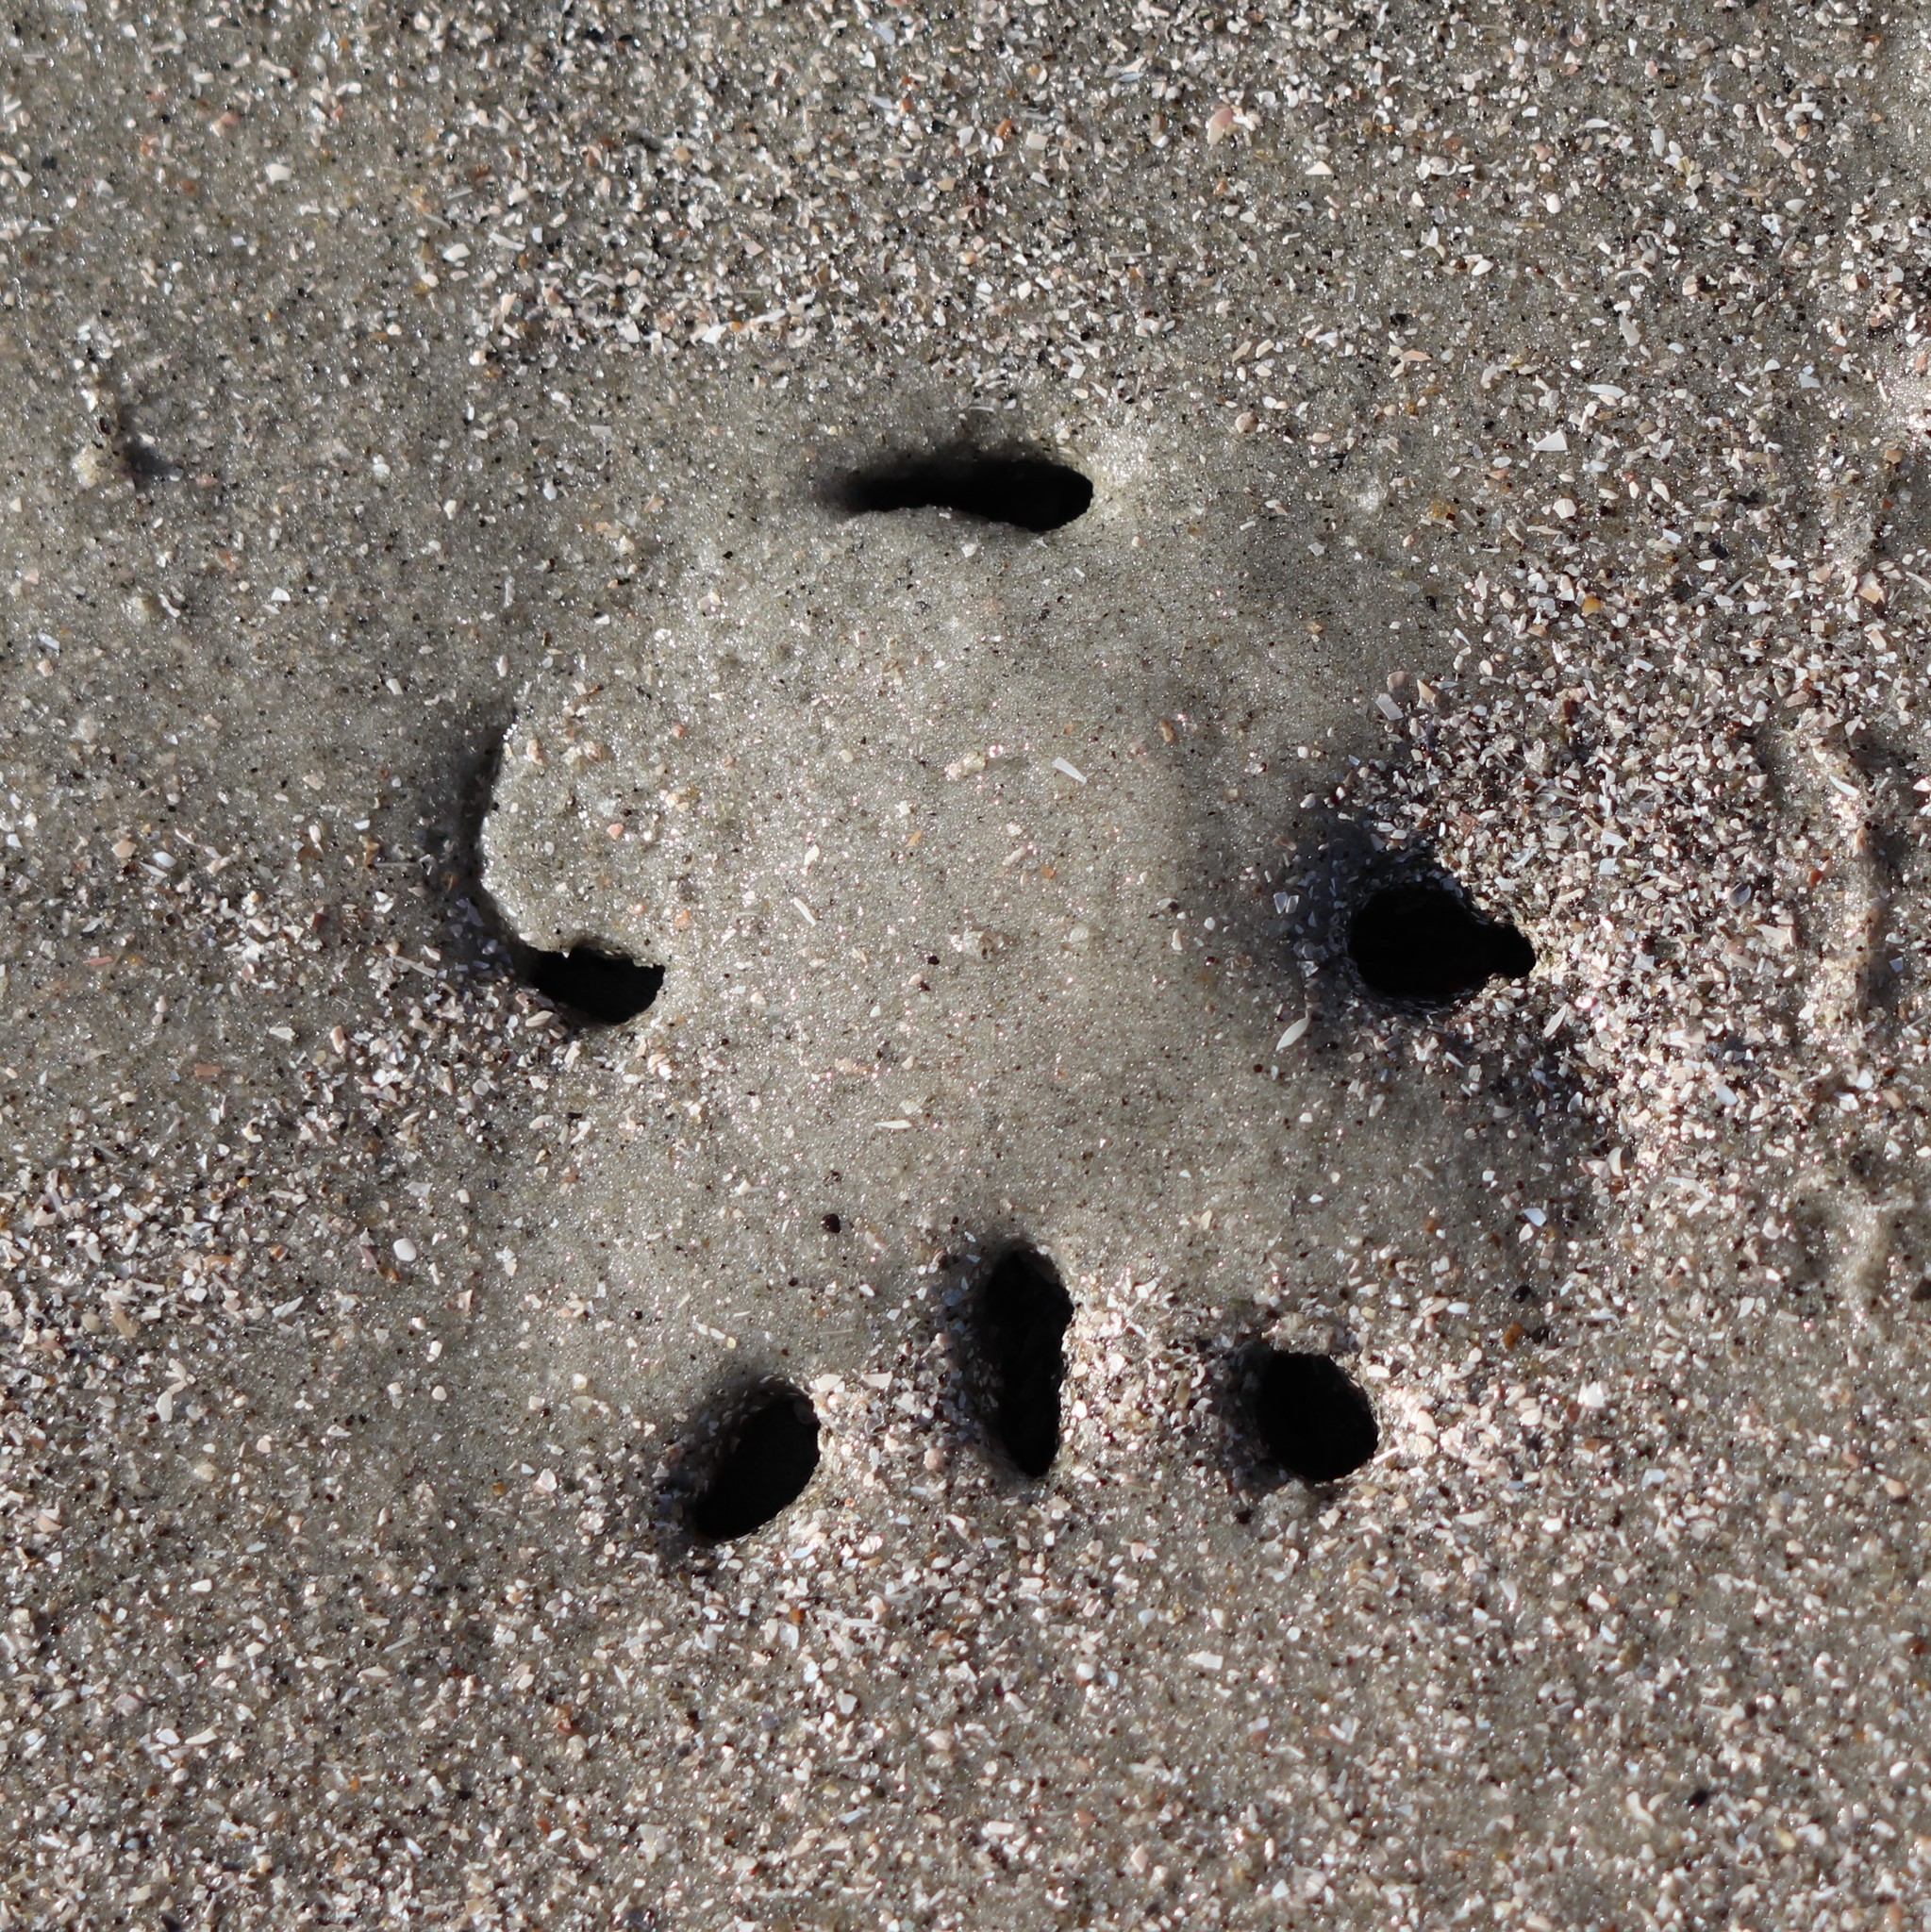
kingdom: Animalia
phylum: Echinodermata
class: Echinoidea
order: Echinolampadacea
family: Mellitidae
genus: Mellita
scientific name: Mellita isometra
